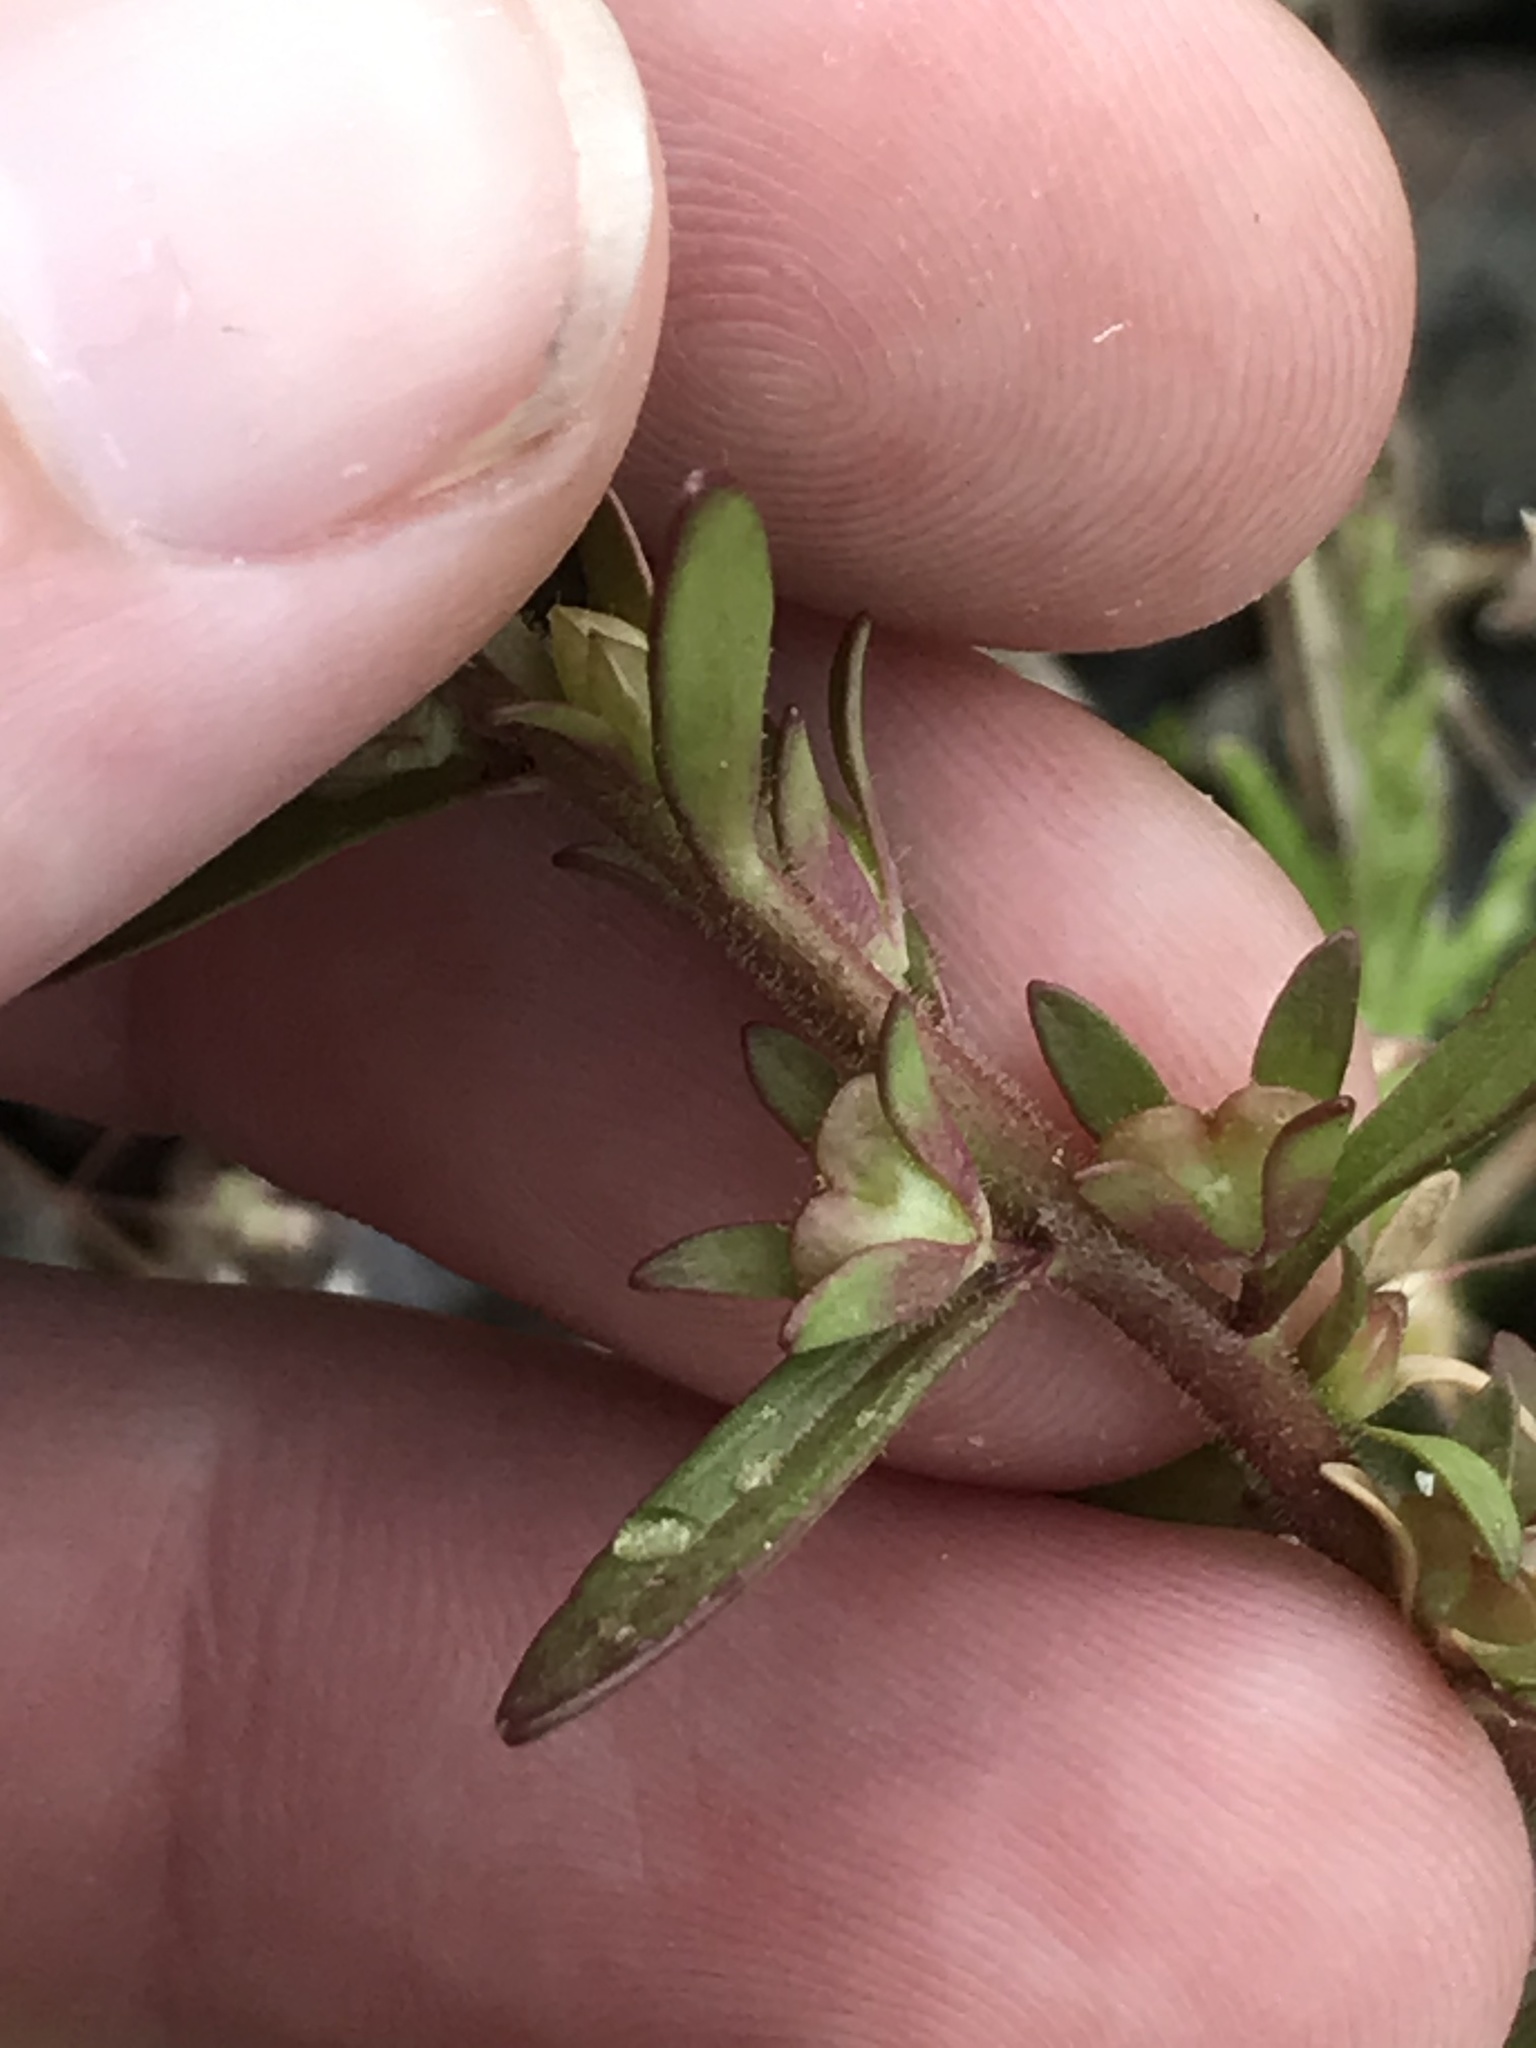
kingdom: Plantae
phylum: Tracheophyta
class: Magnoliopsida
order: Lamiales
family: Plantaginaceae
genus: Veronica
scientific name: Veronica peregrina
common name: Neckweed
